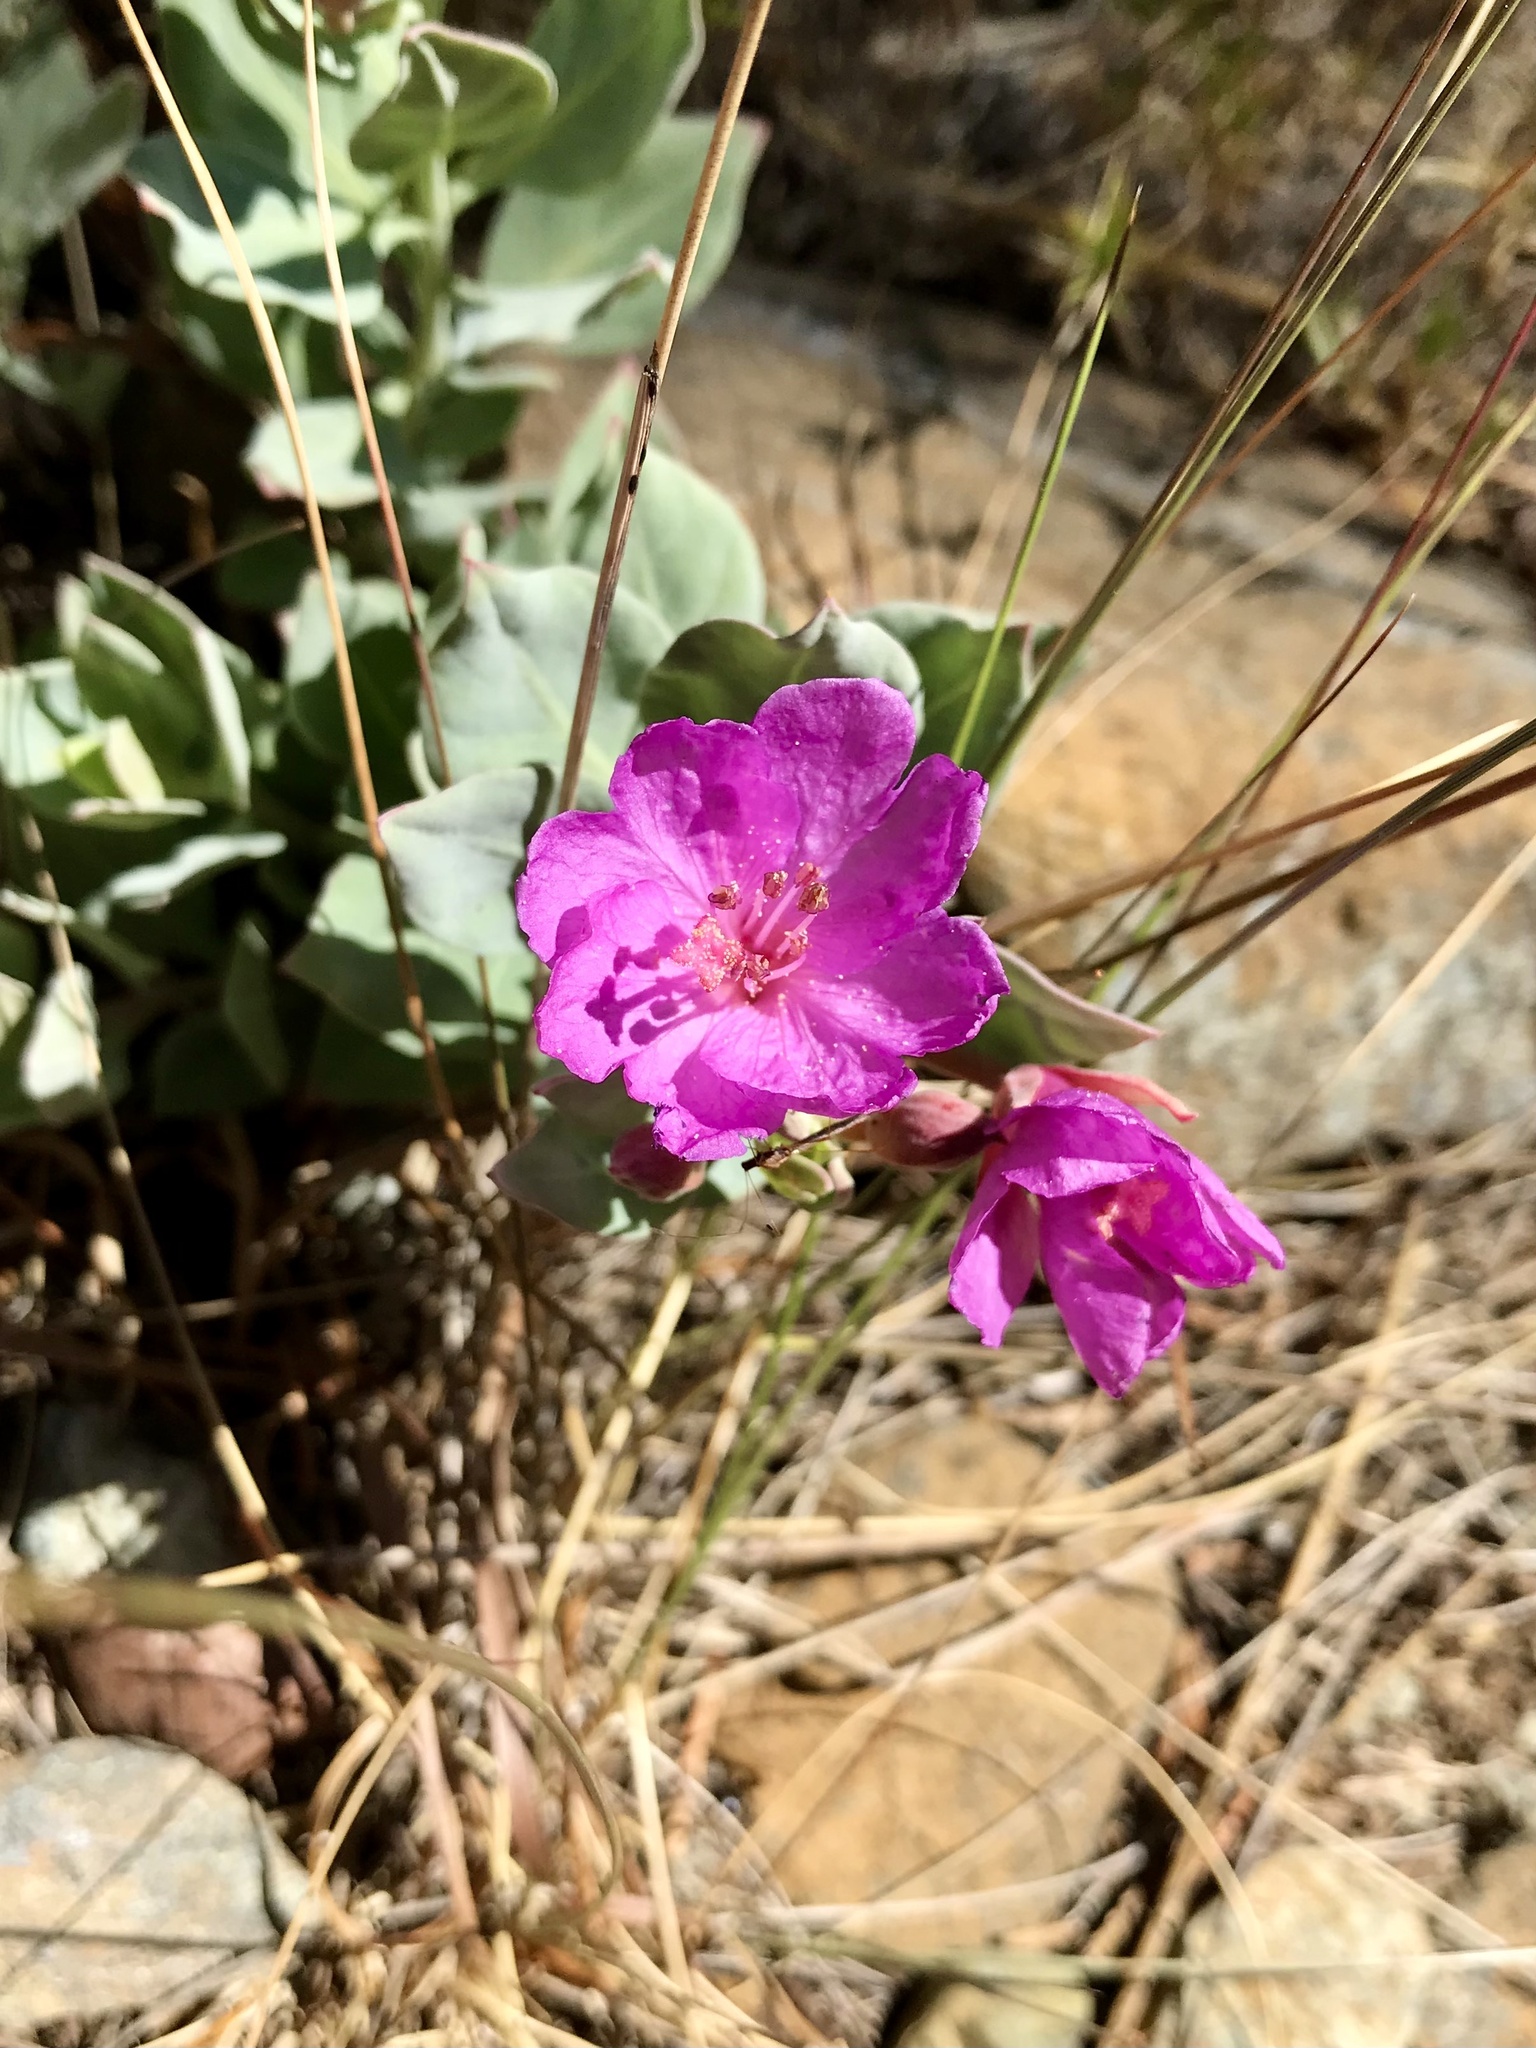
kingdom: Plantae
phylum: Tracheophyta
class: Magnoliopsida
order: Myrtales
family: Onagraceae
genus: Epilobium
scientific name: Epilobium rigidum
